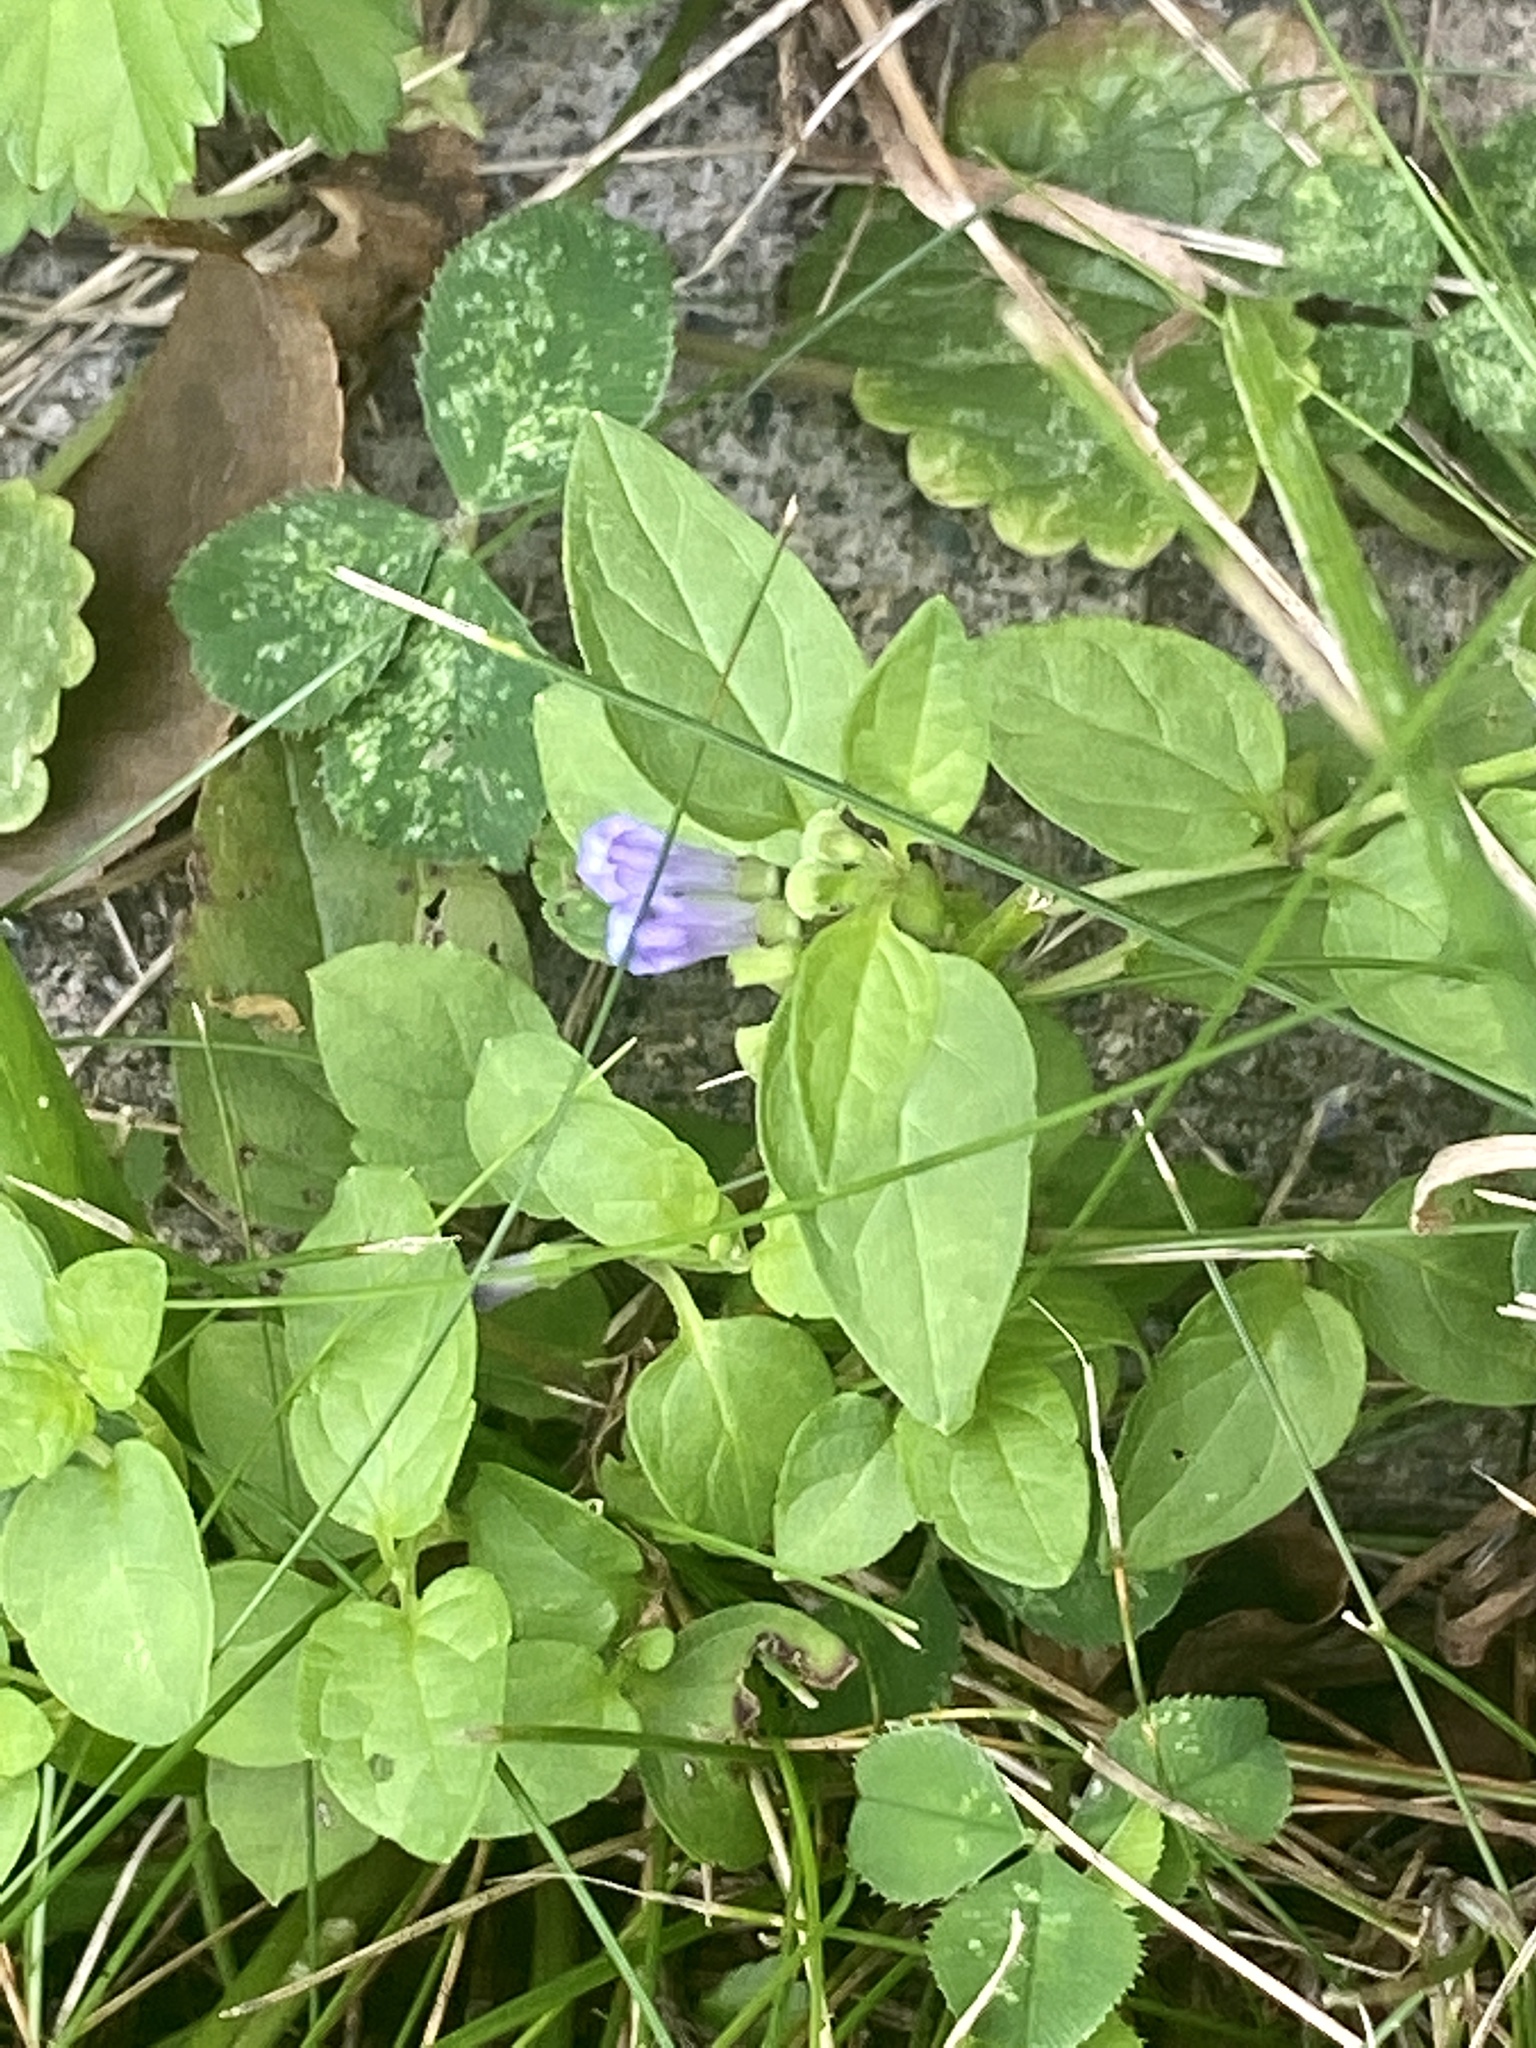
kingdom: Plantae
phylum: Tracheophyta
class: Magnoliopsida
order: Lamiales
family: Lamiaceae
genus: Scutellaria
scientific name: Scutellaria lateriflora
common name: Blue skullcap
